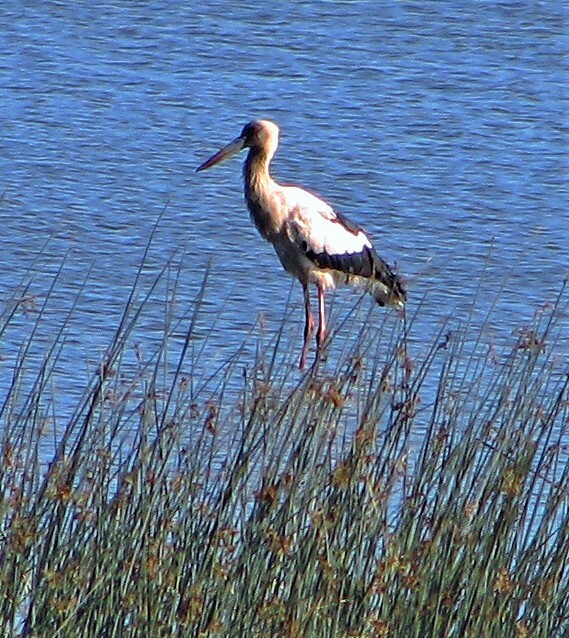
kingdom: Animalia
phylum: Chordata
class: Aves
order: Ciconiiformes
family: Ciconiidae
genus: Ciconia
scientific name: Ciconia maguari
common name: Maguari stork
